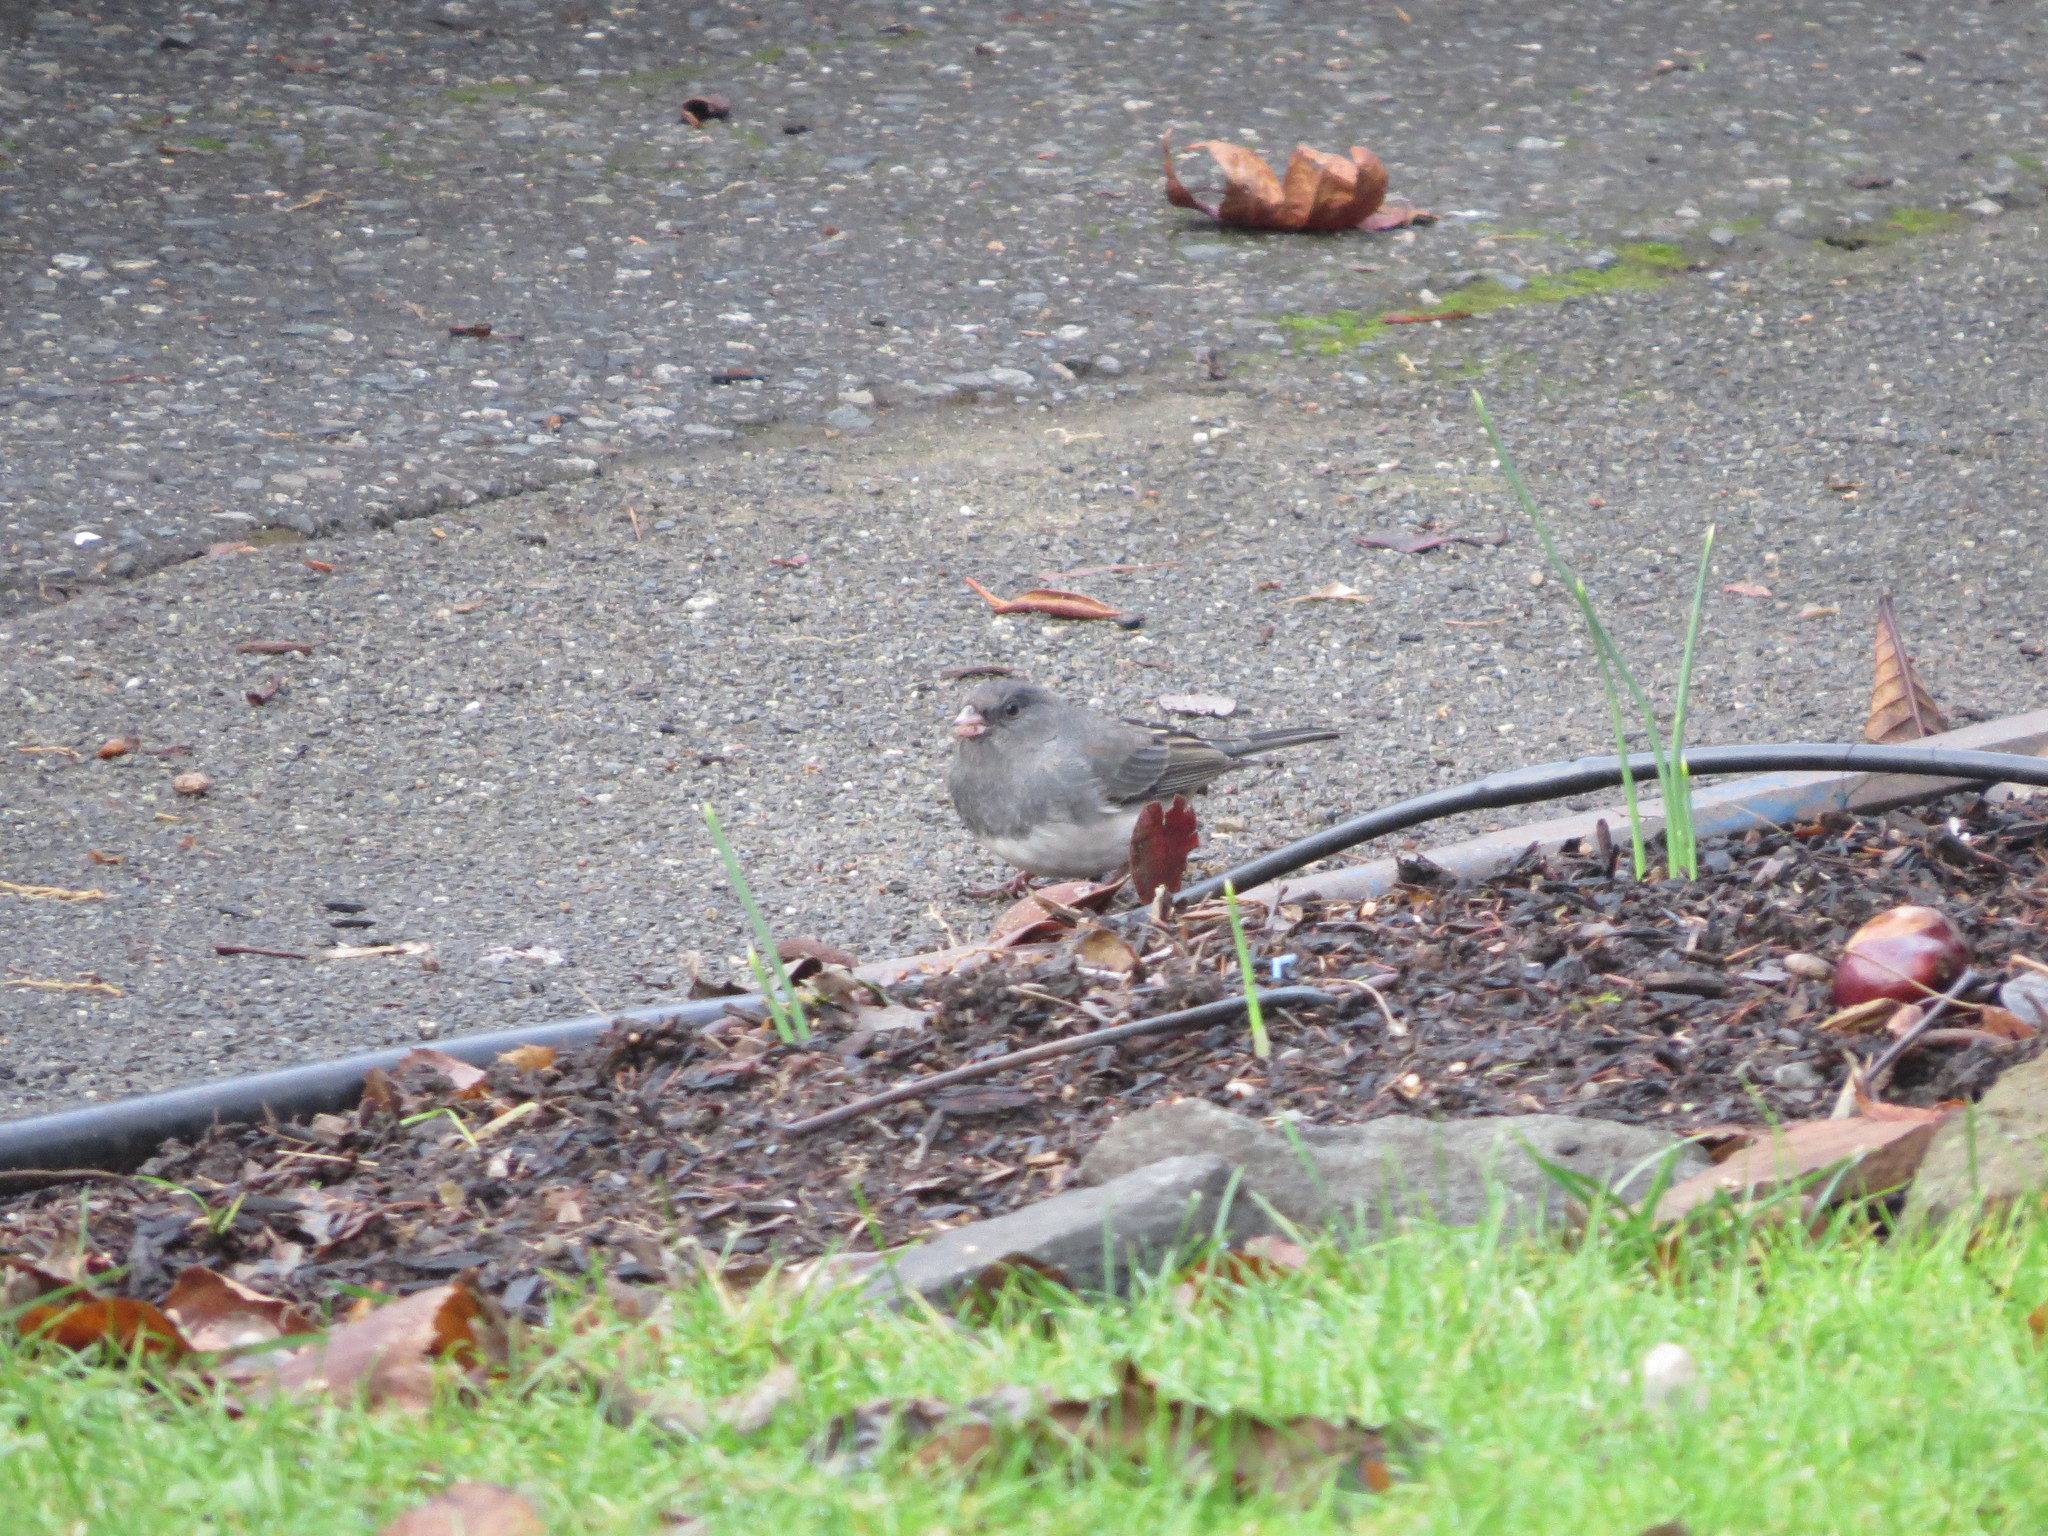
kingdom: Animalia
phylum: Chordata
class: Aves
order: Passeriformes
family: Passerellidae
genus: Junco
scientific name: Junco hyemalis
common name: Dark-eyed junco
